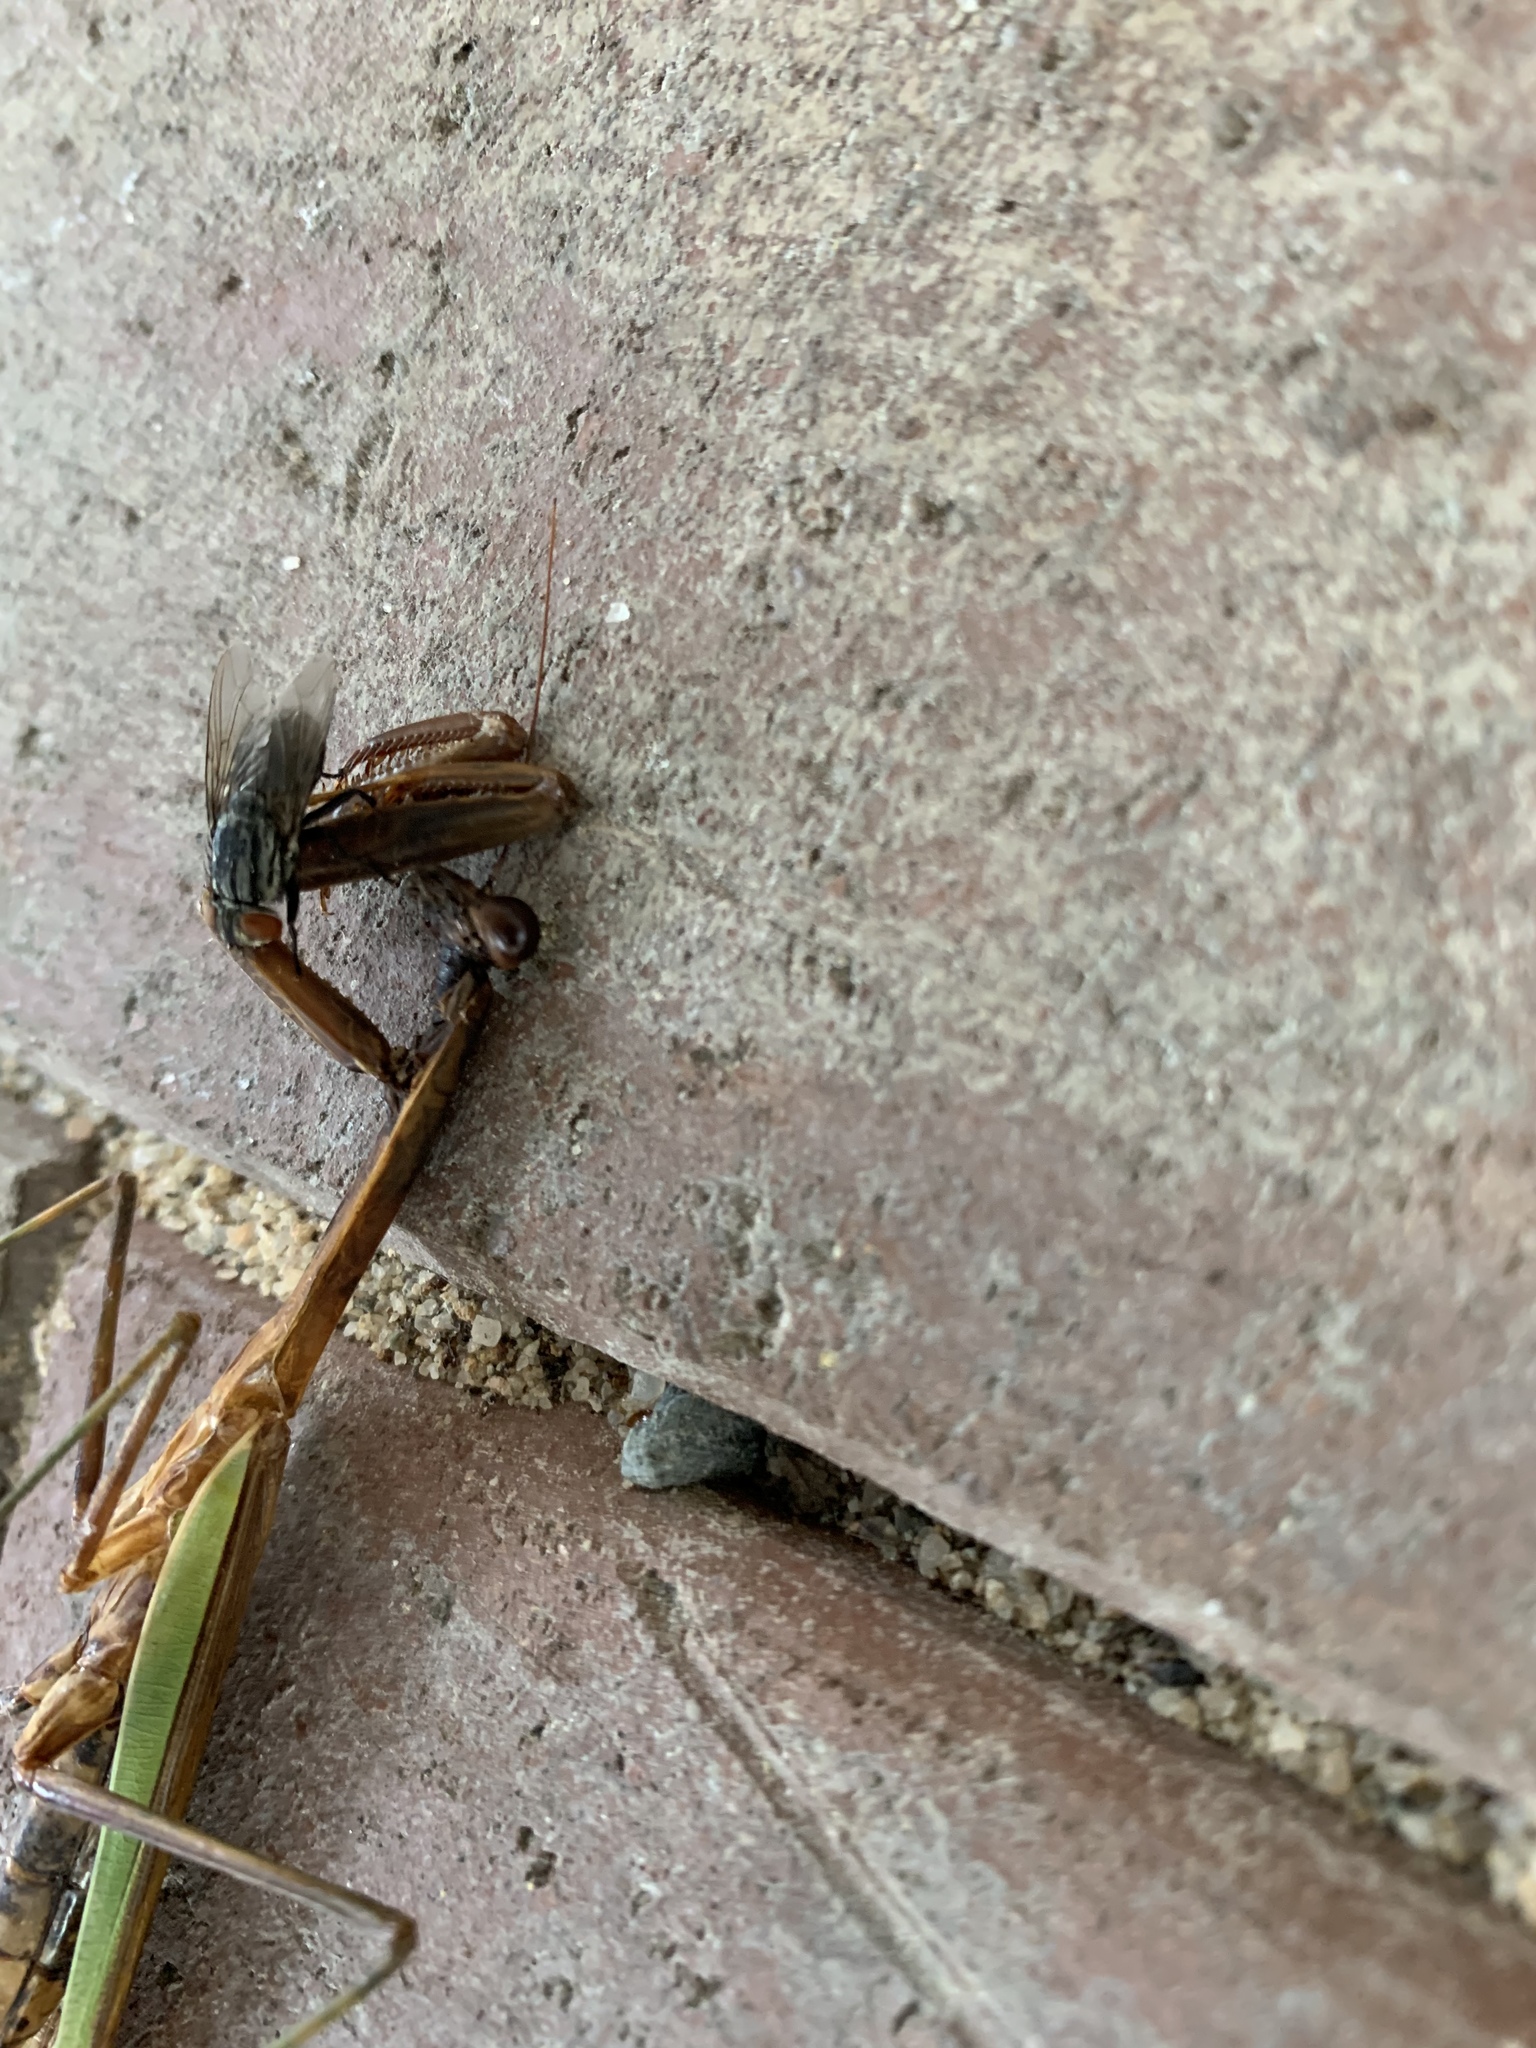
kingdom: Animalia
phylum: Arthropoda
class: Insecta
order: Mantodea
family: Mantidae
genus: Tenodera
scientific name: Tenodera sinensis
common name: Chinese mantis
